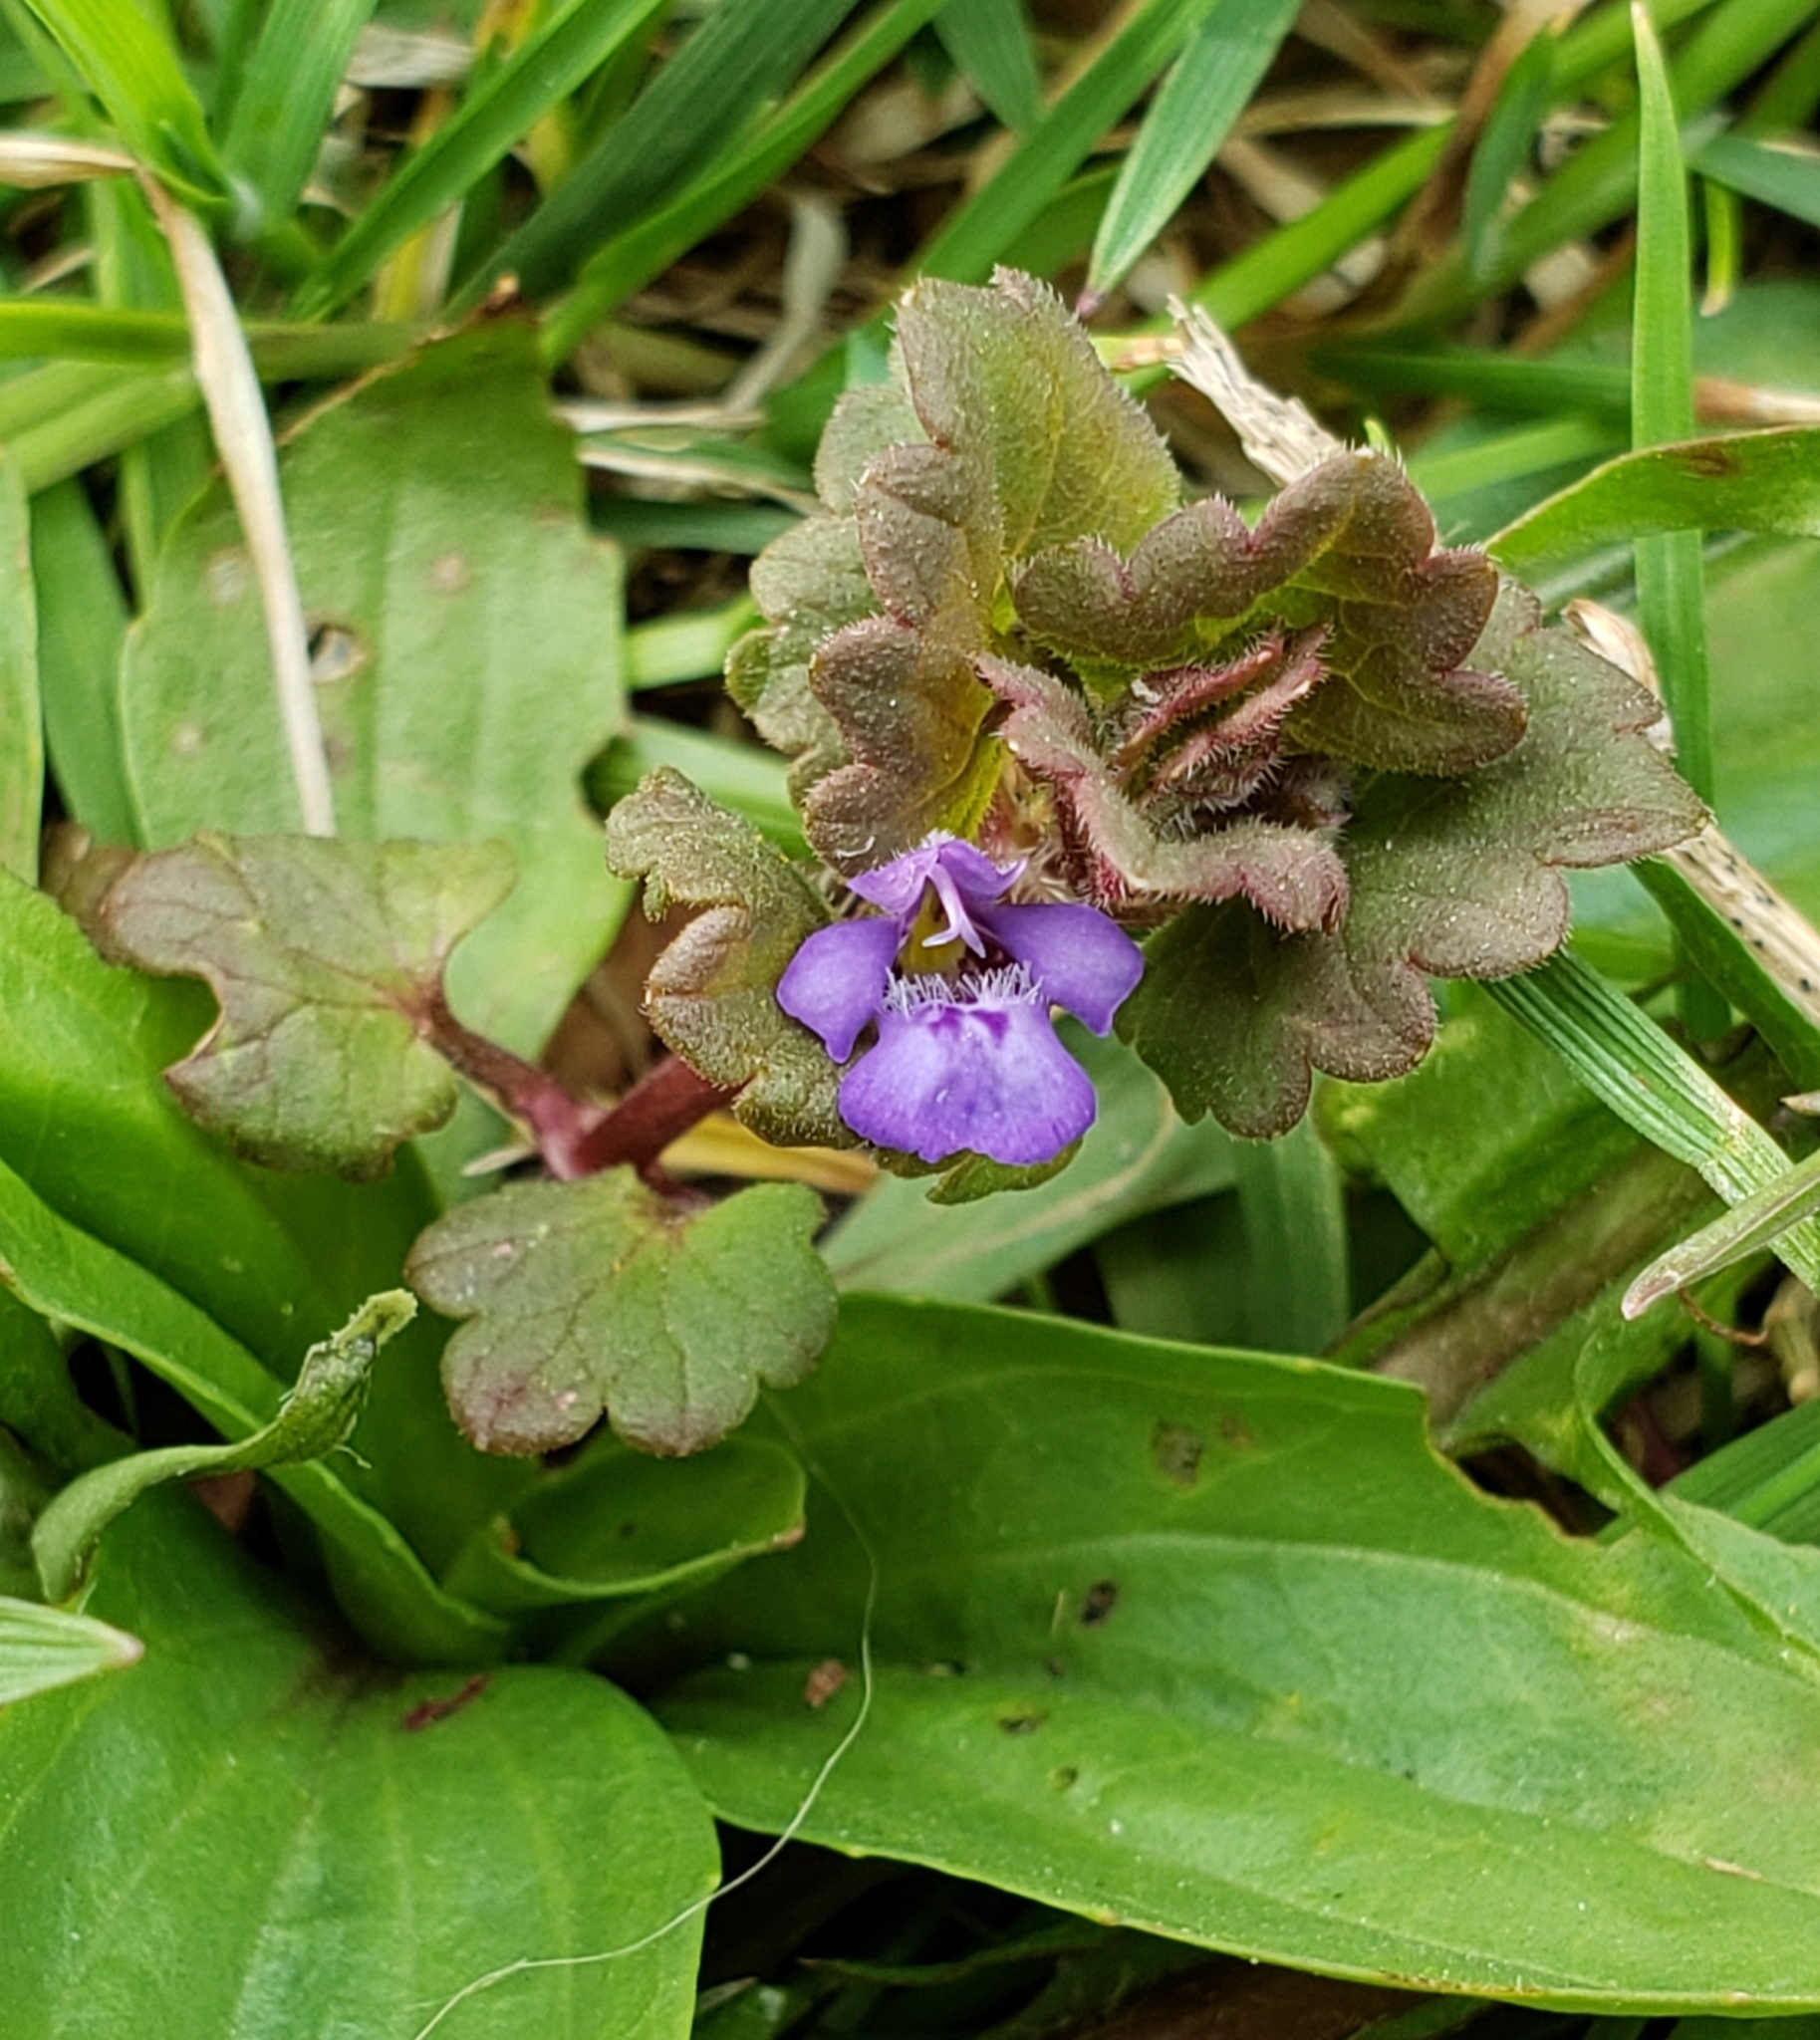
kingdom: Plantae
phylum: Tracheophyta
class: Magnoliopsida
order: Lamiales
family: Lamiaceae
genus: Glechoma
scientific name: Glechoma hederacea
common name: Ground ivy
